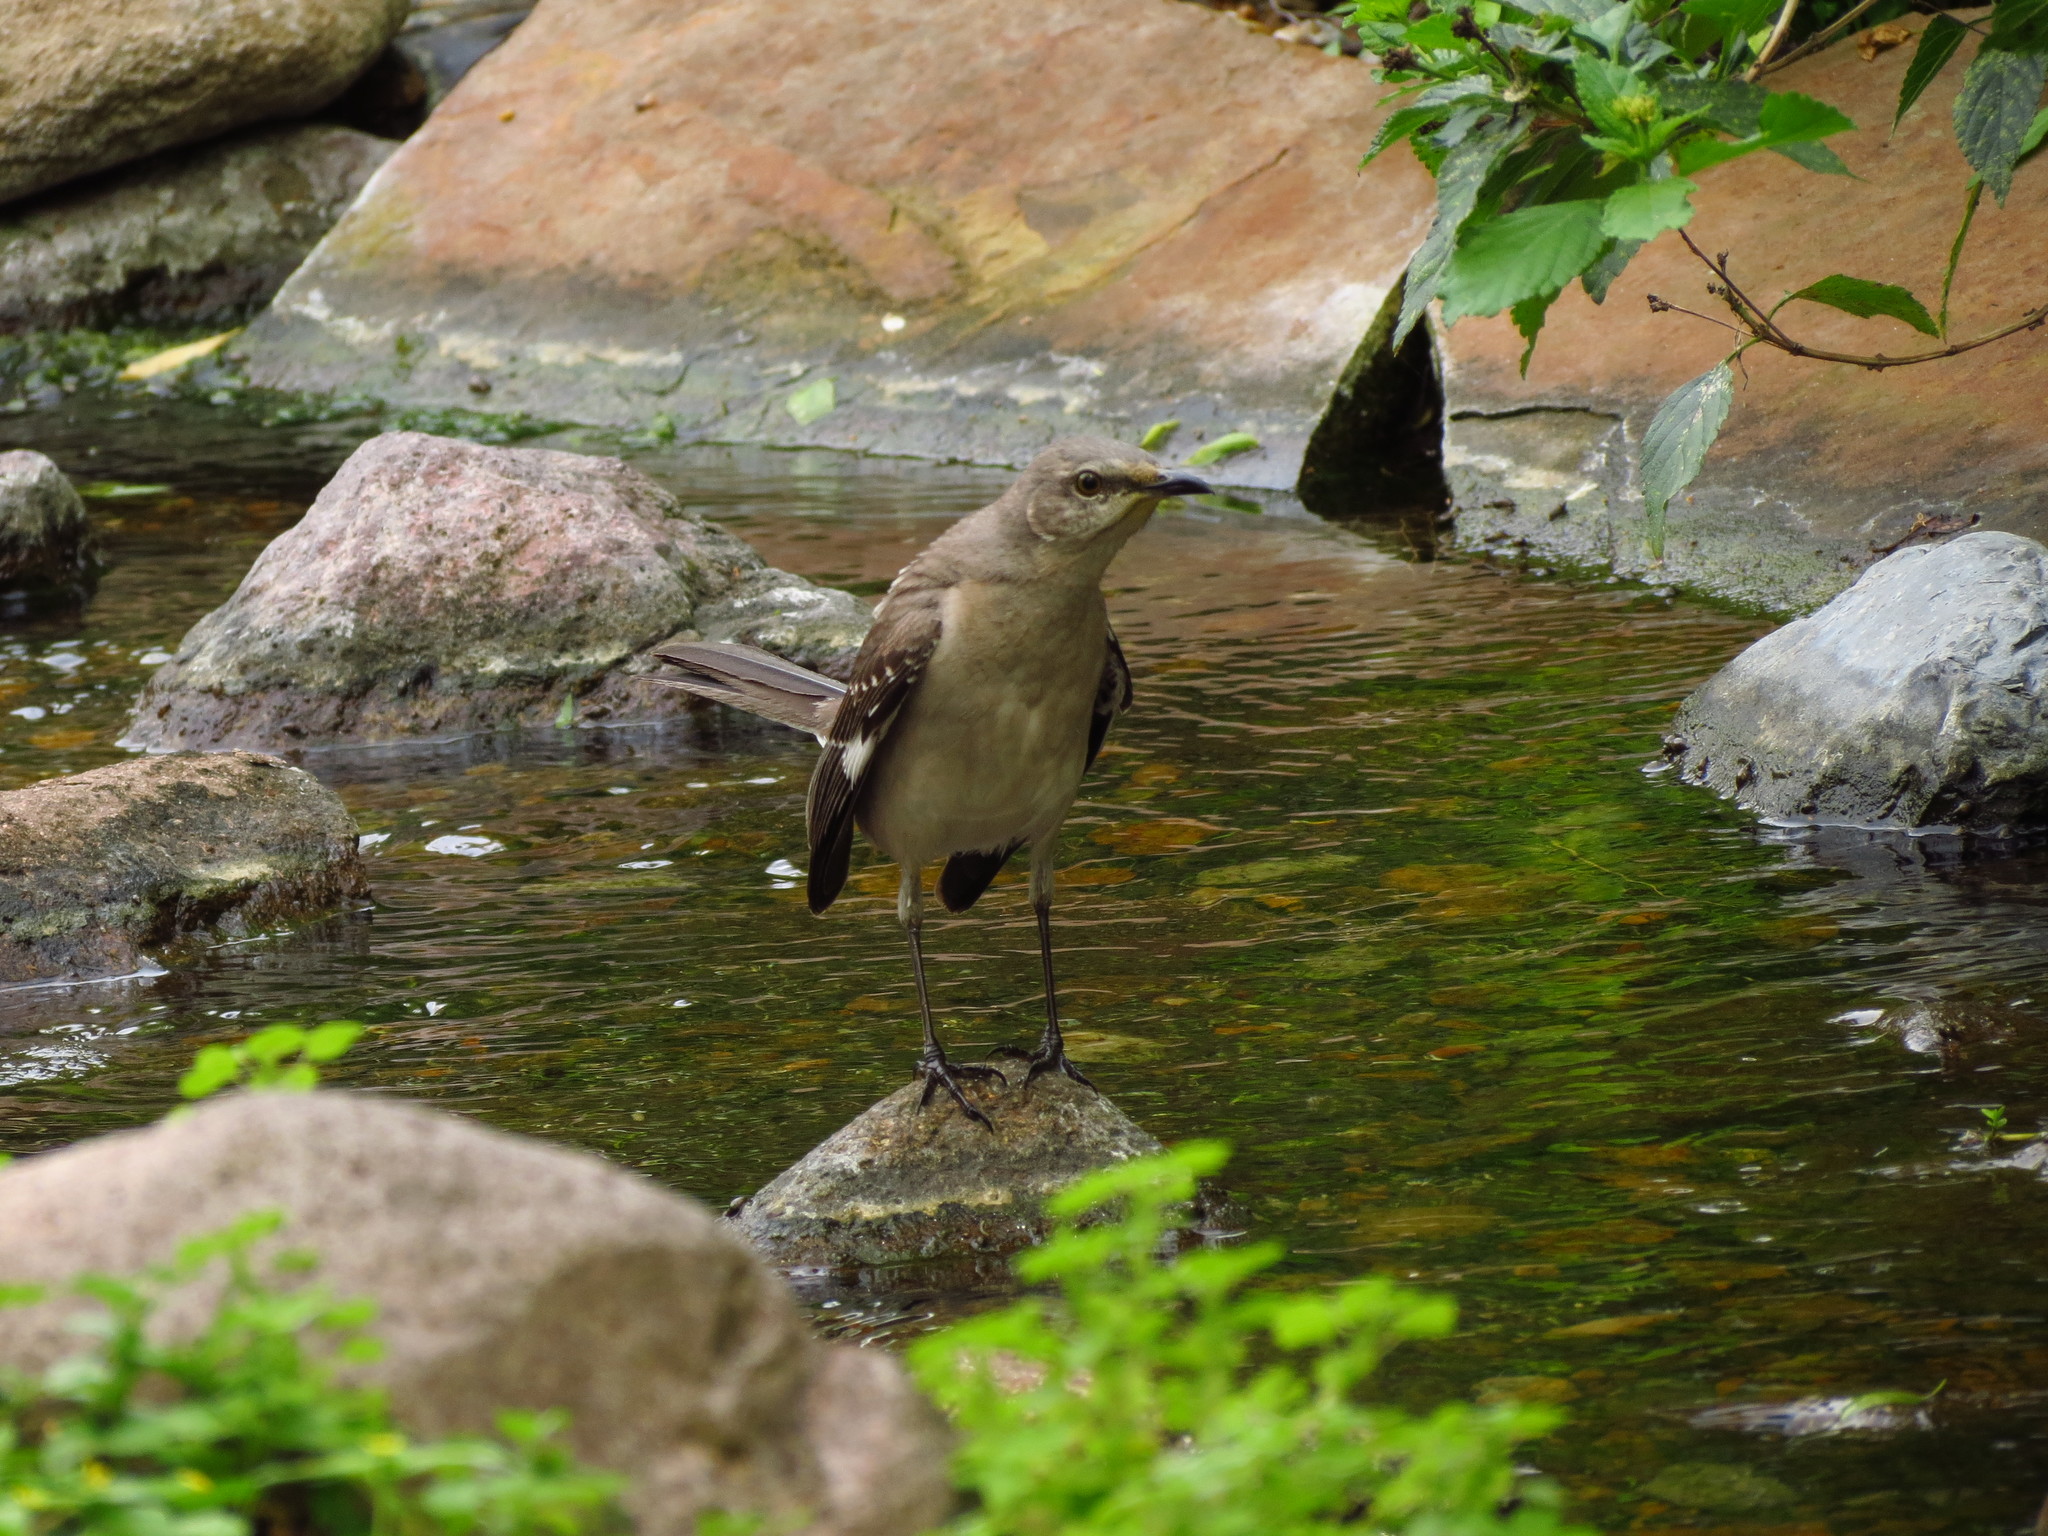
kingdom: Animalia
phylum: Chordata
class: Aves
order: Passeriformes
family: Mimidae
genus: Mimus
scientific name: Mimus polyglottos
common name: Northern mockingbird
